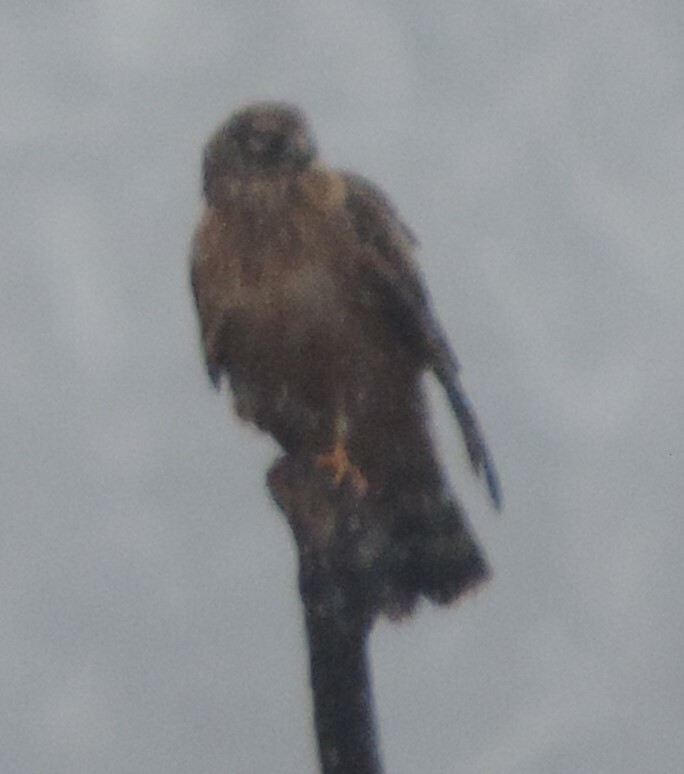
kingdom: Animalia
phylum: Chordata
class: Aves
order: Accipitriformes
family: Accipitridae
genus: Circus
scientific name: Circus cyaneus
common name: Hen harrier
